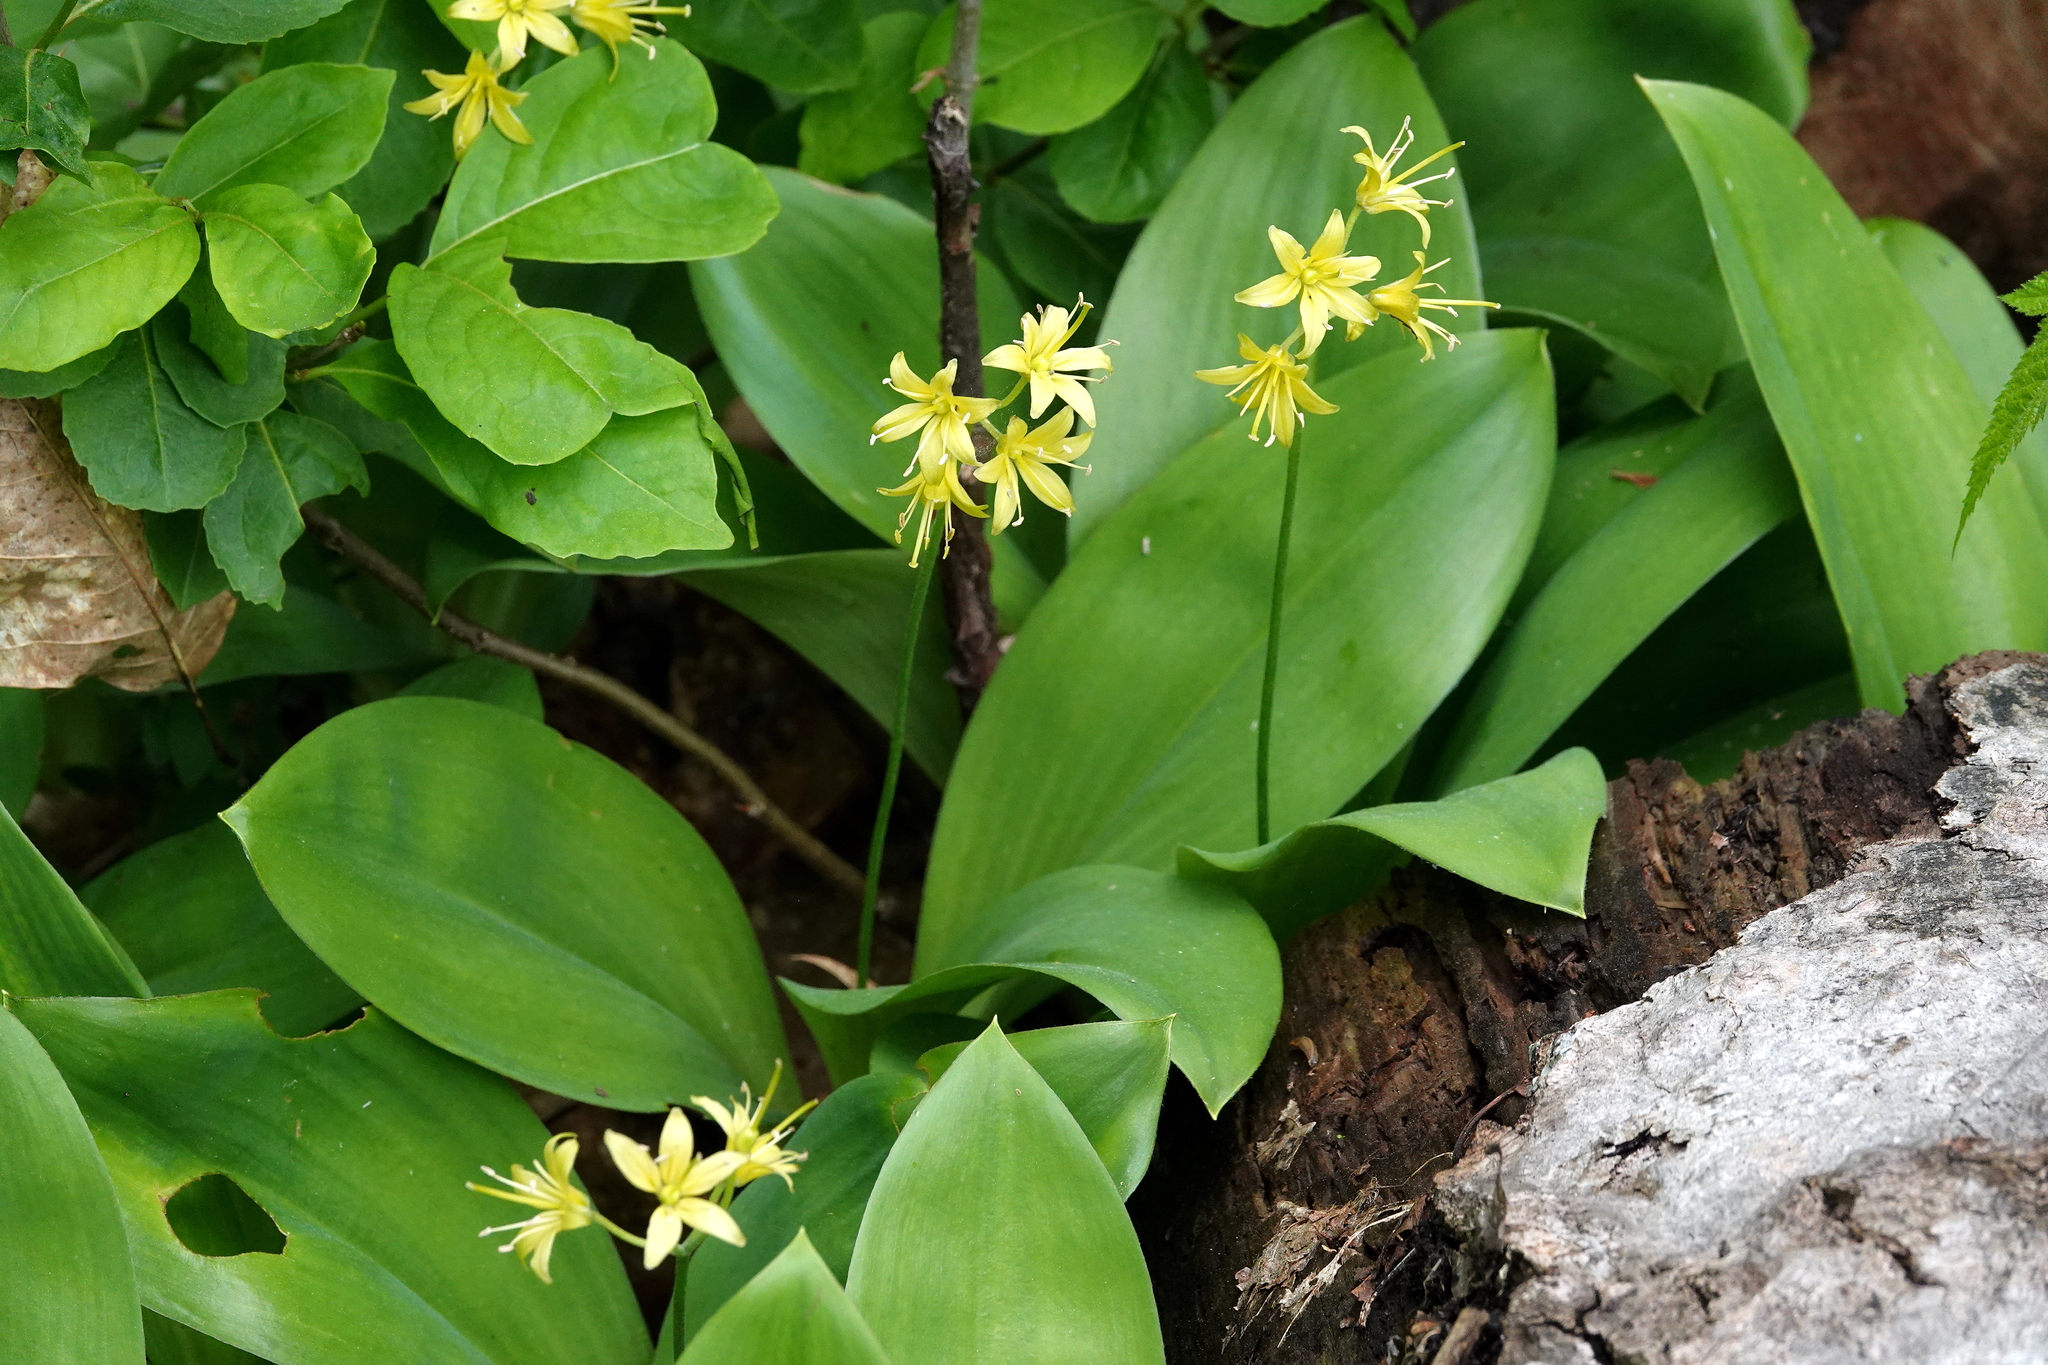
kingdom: Plantae
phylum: Tracheophyta
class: Liliopsida
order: Liliales
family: Liliaceae
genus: Clintonia
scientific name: Clintonia borealis
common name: Yellow clintonia
